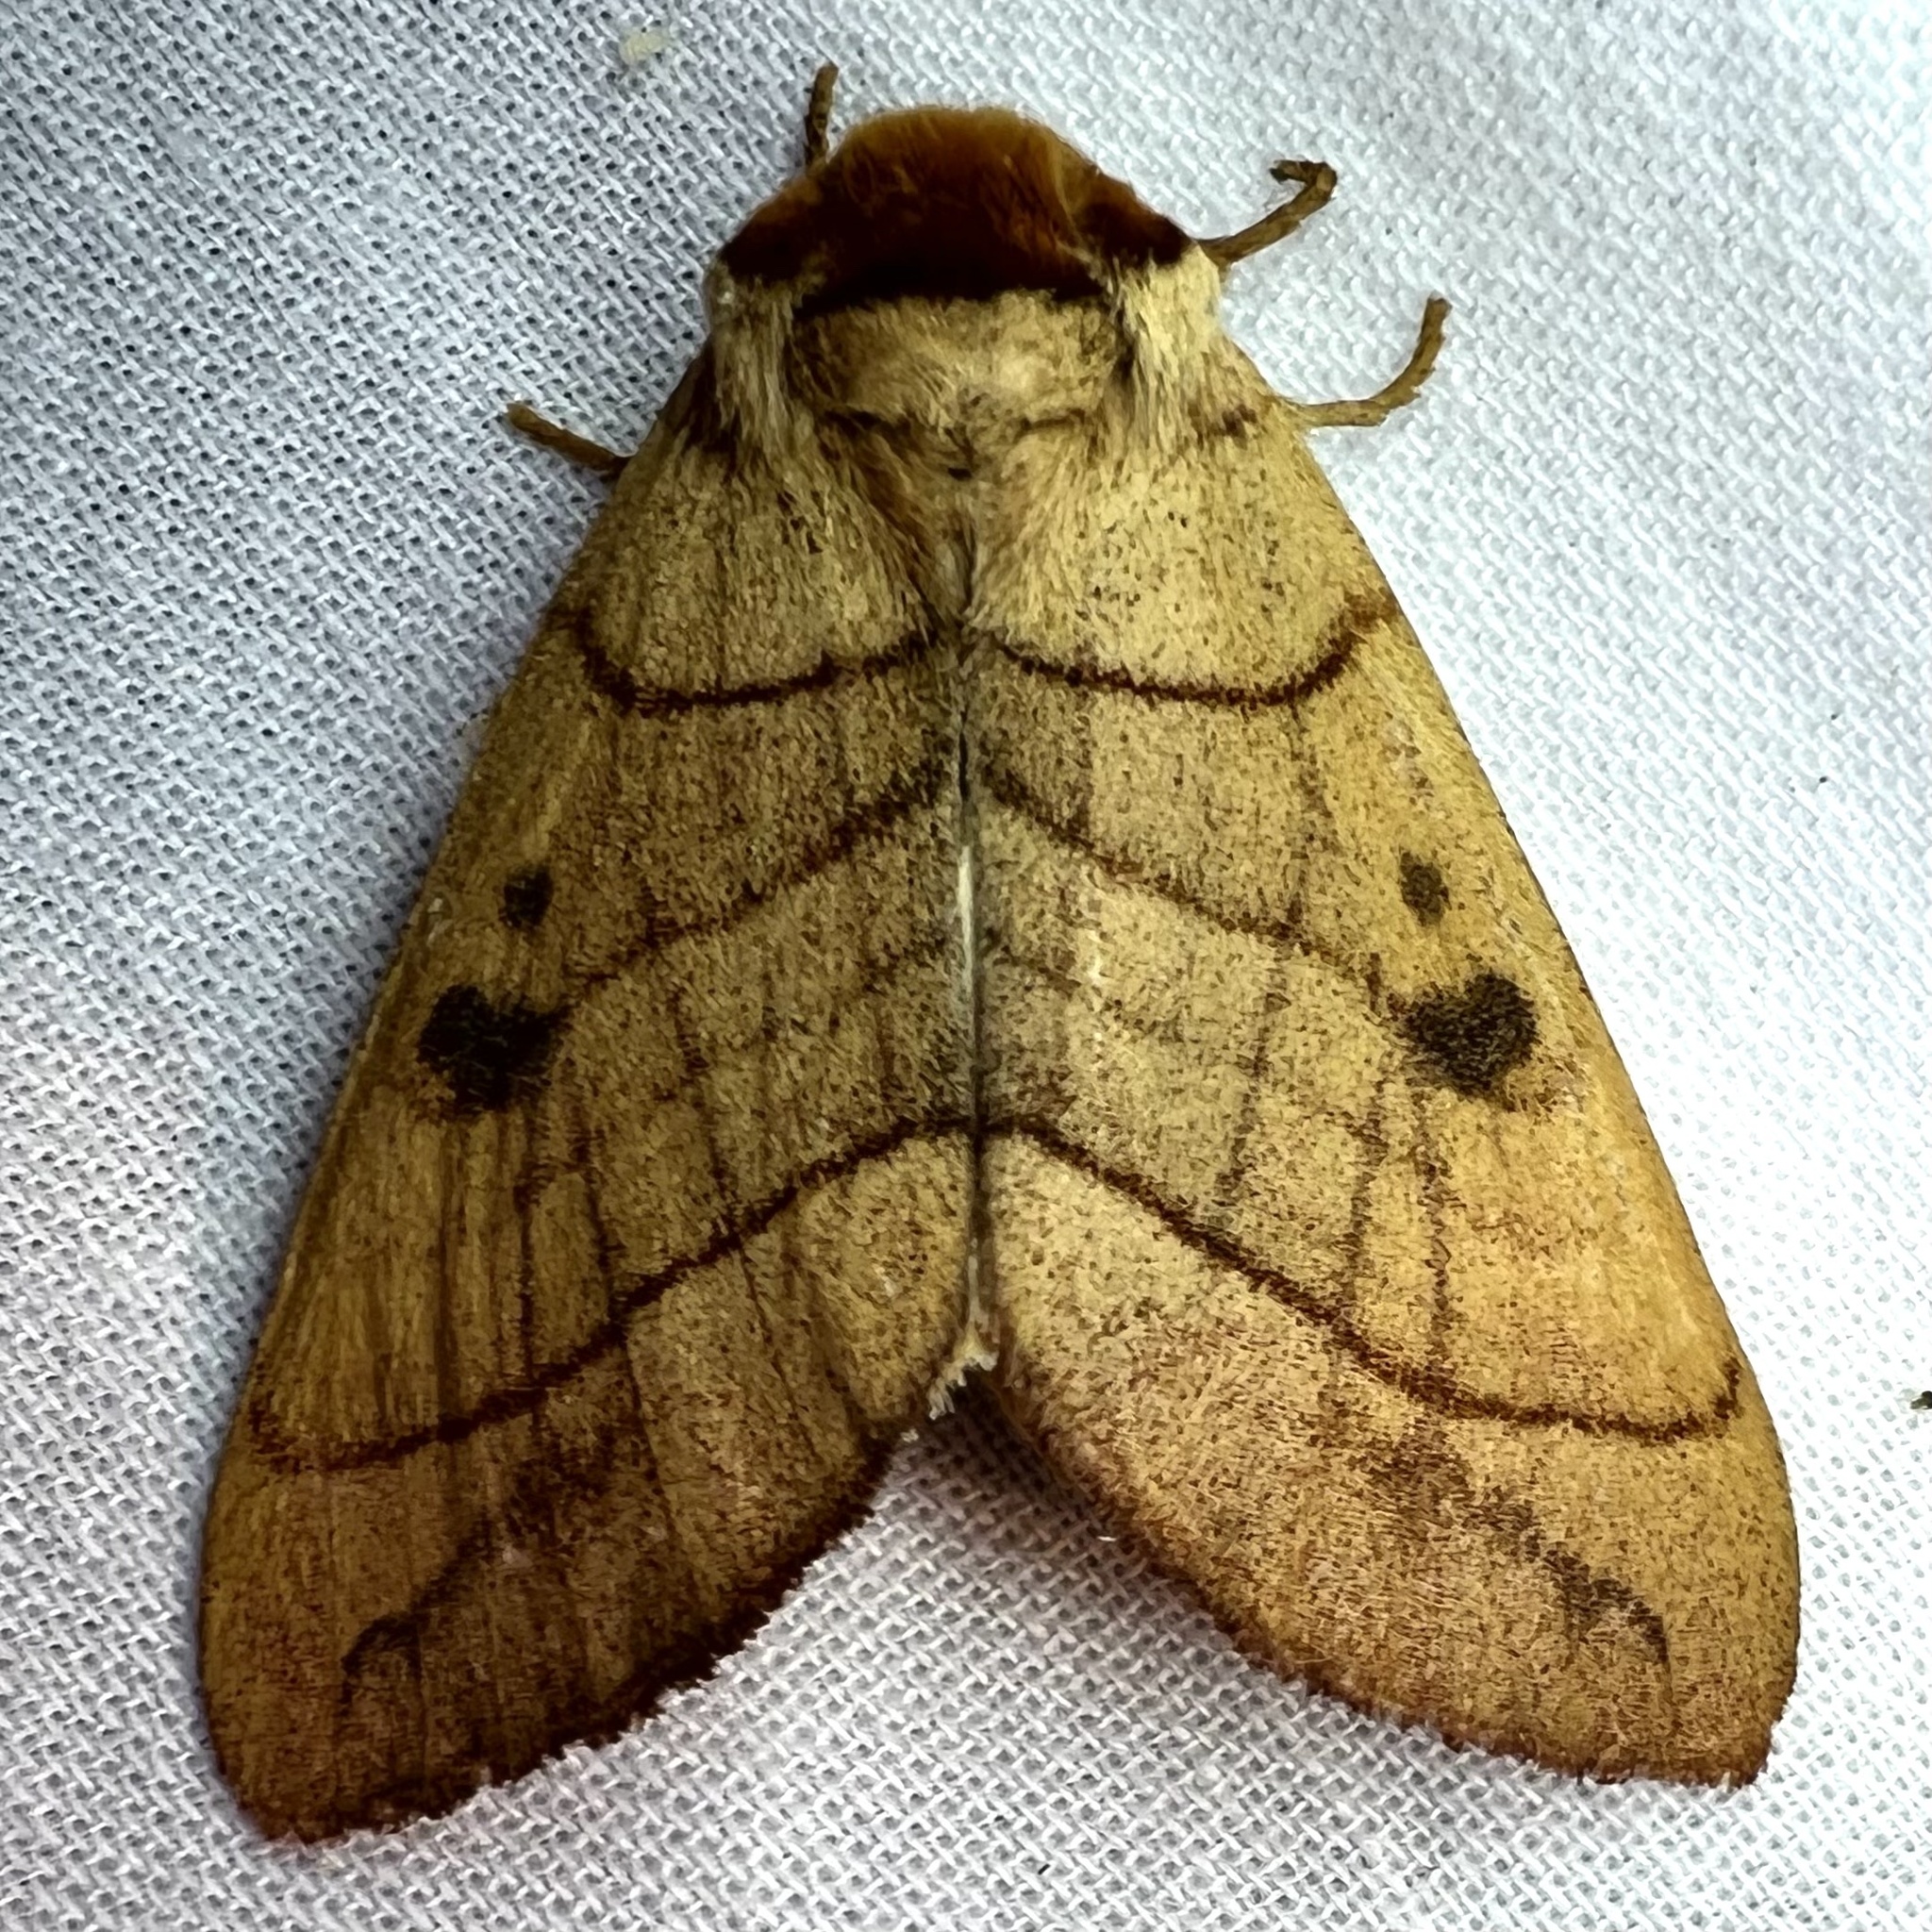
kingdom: Animalia
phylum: Arthropoda
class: Insecta
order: Lepidoptera
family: Notodontidae
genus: Datana
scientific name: Datana perspicua
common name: Spotted datana
